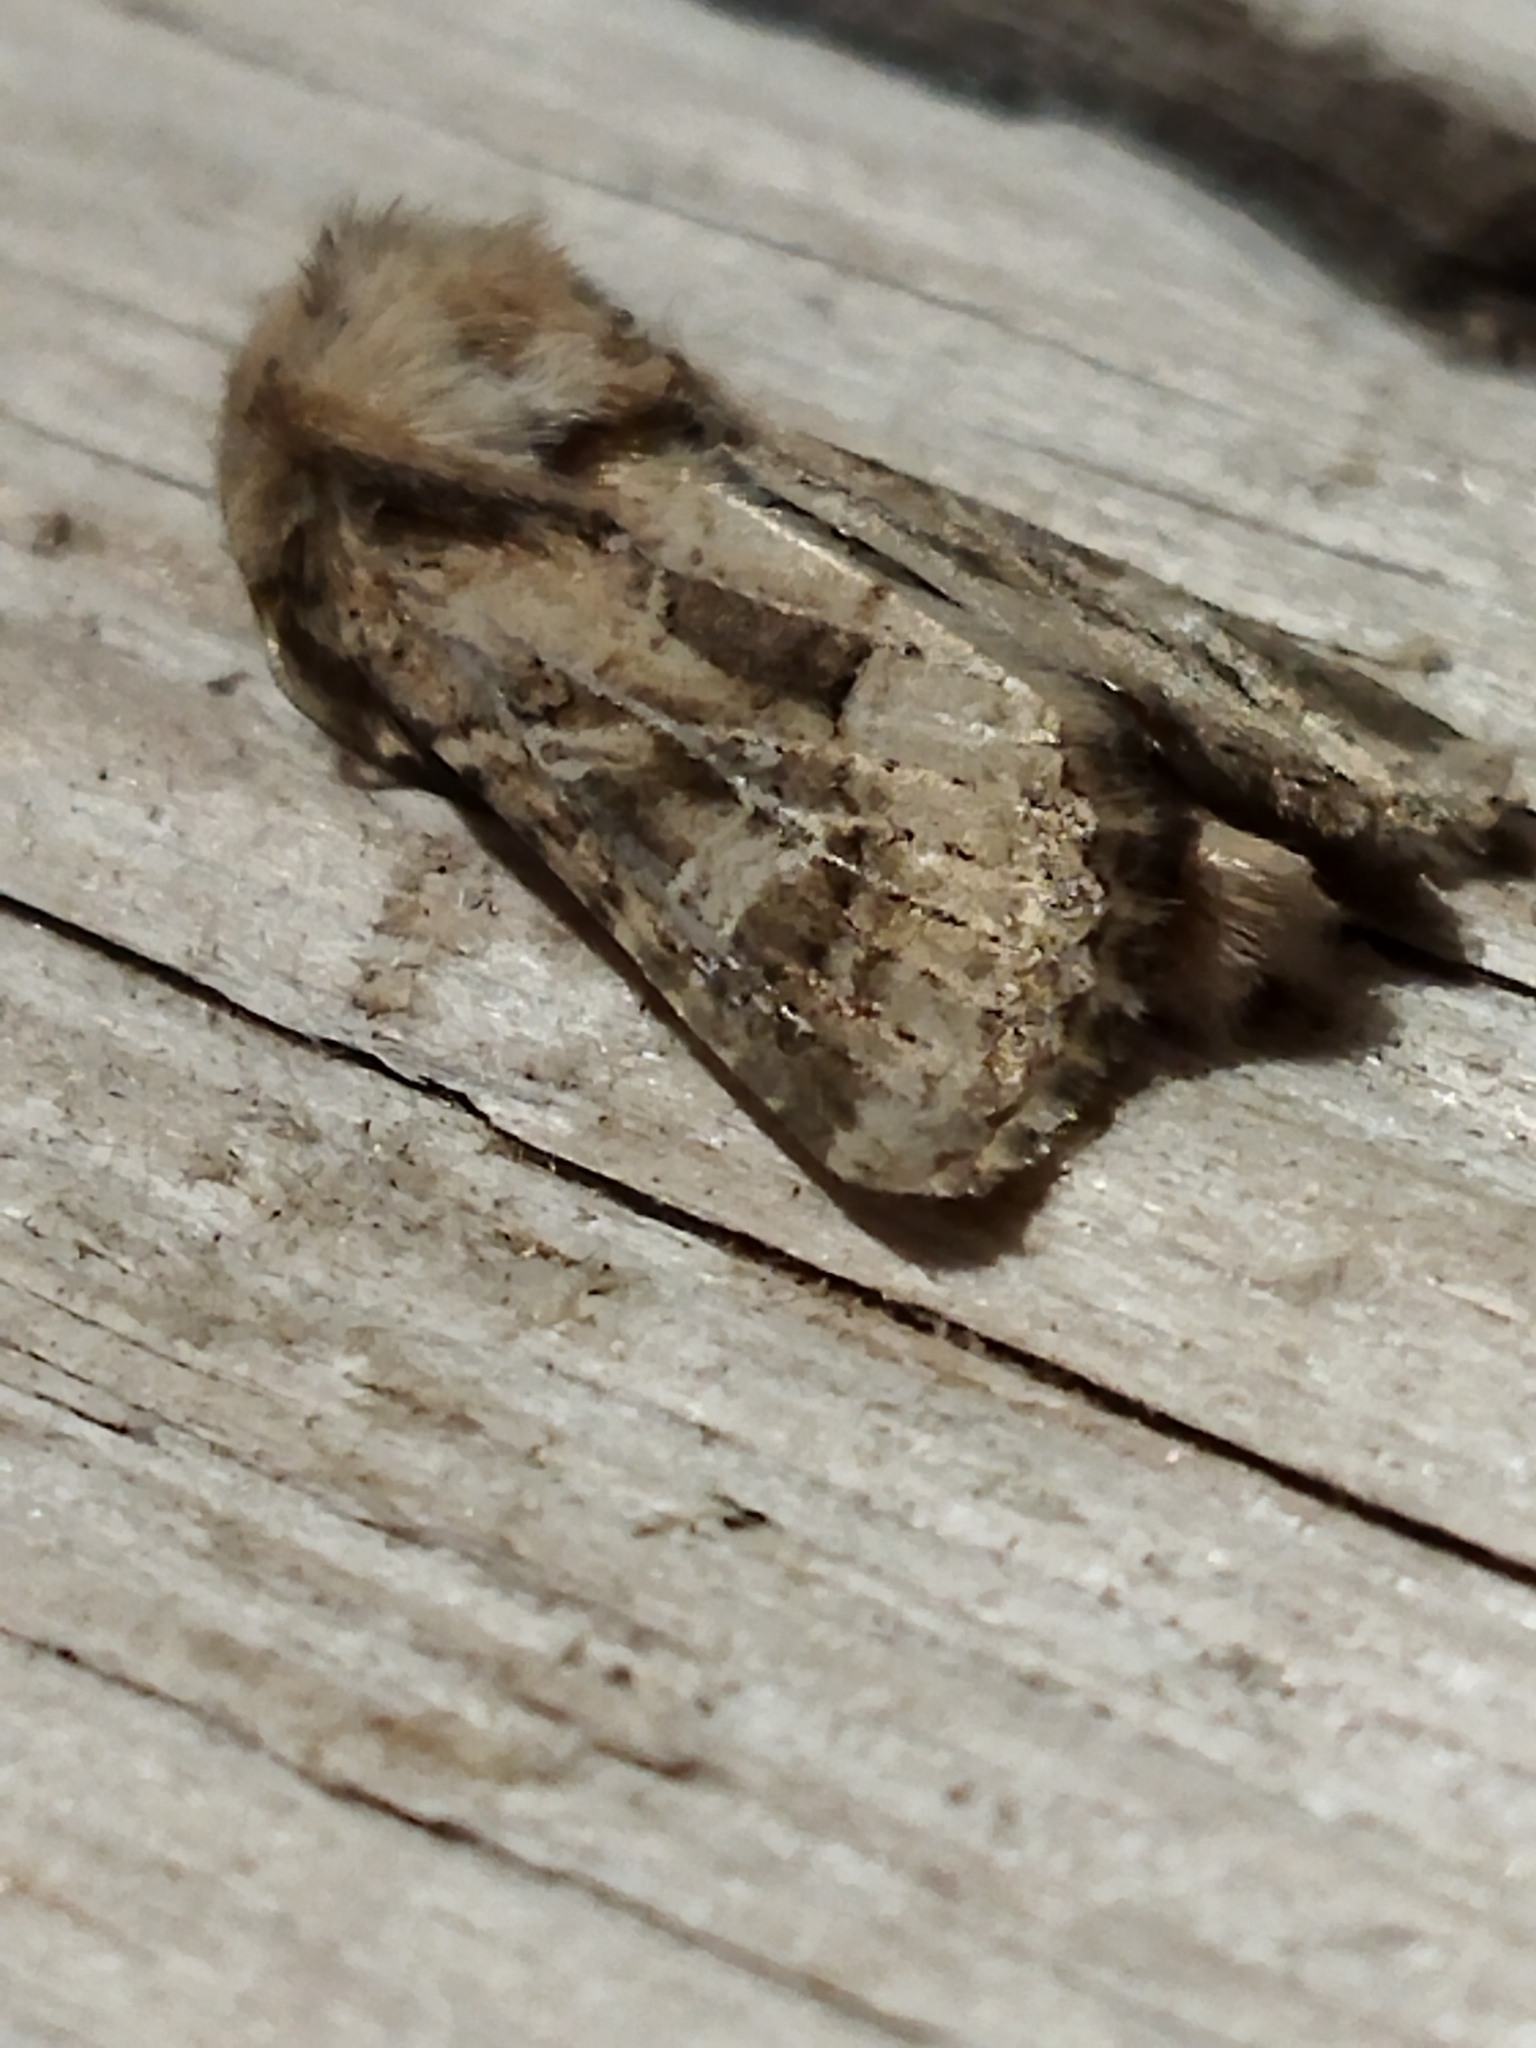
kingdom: Animalia
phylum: Arthropoda
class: Insecta
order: Lepidoptera
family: Noctuidae
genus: Luperina
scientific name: Luperina dumerilii
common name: Dumeril's rustic
